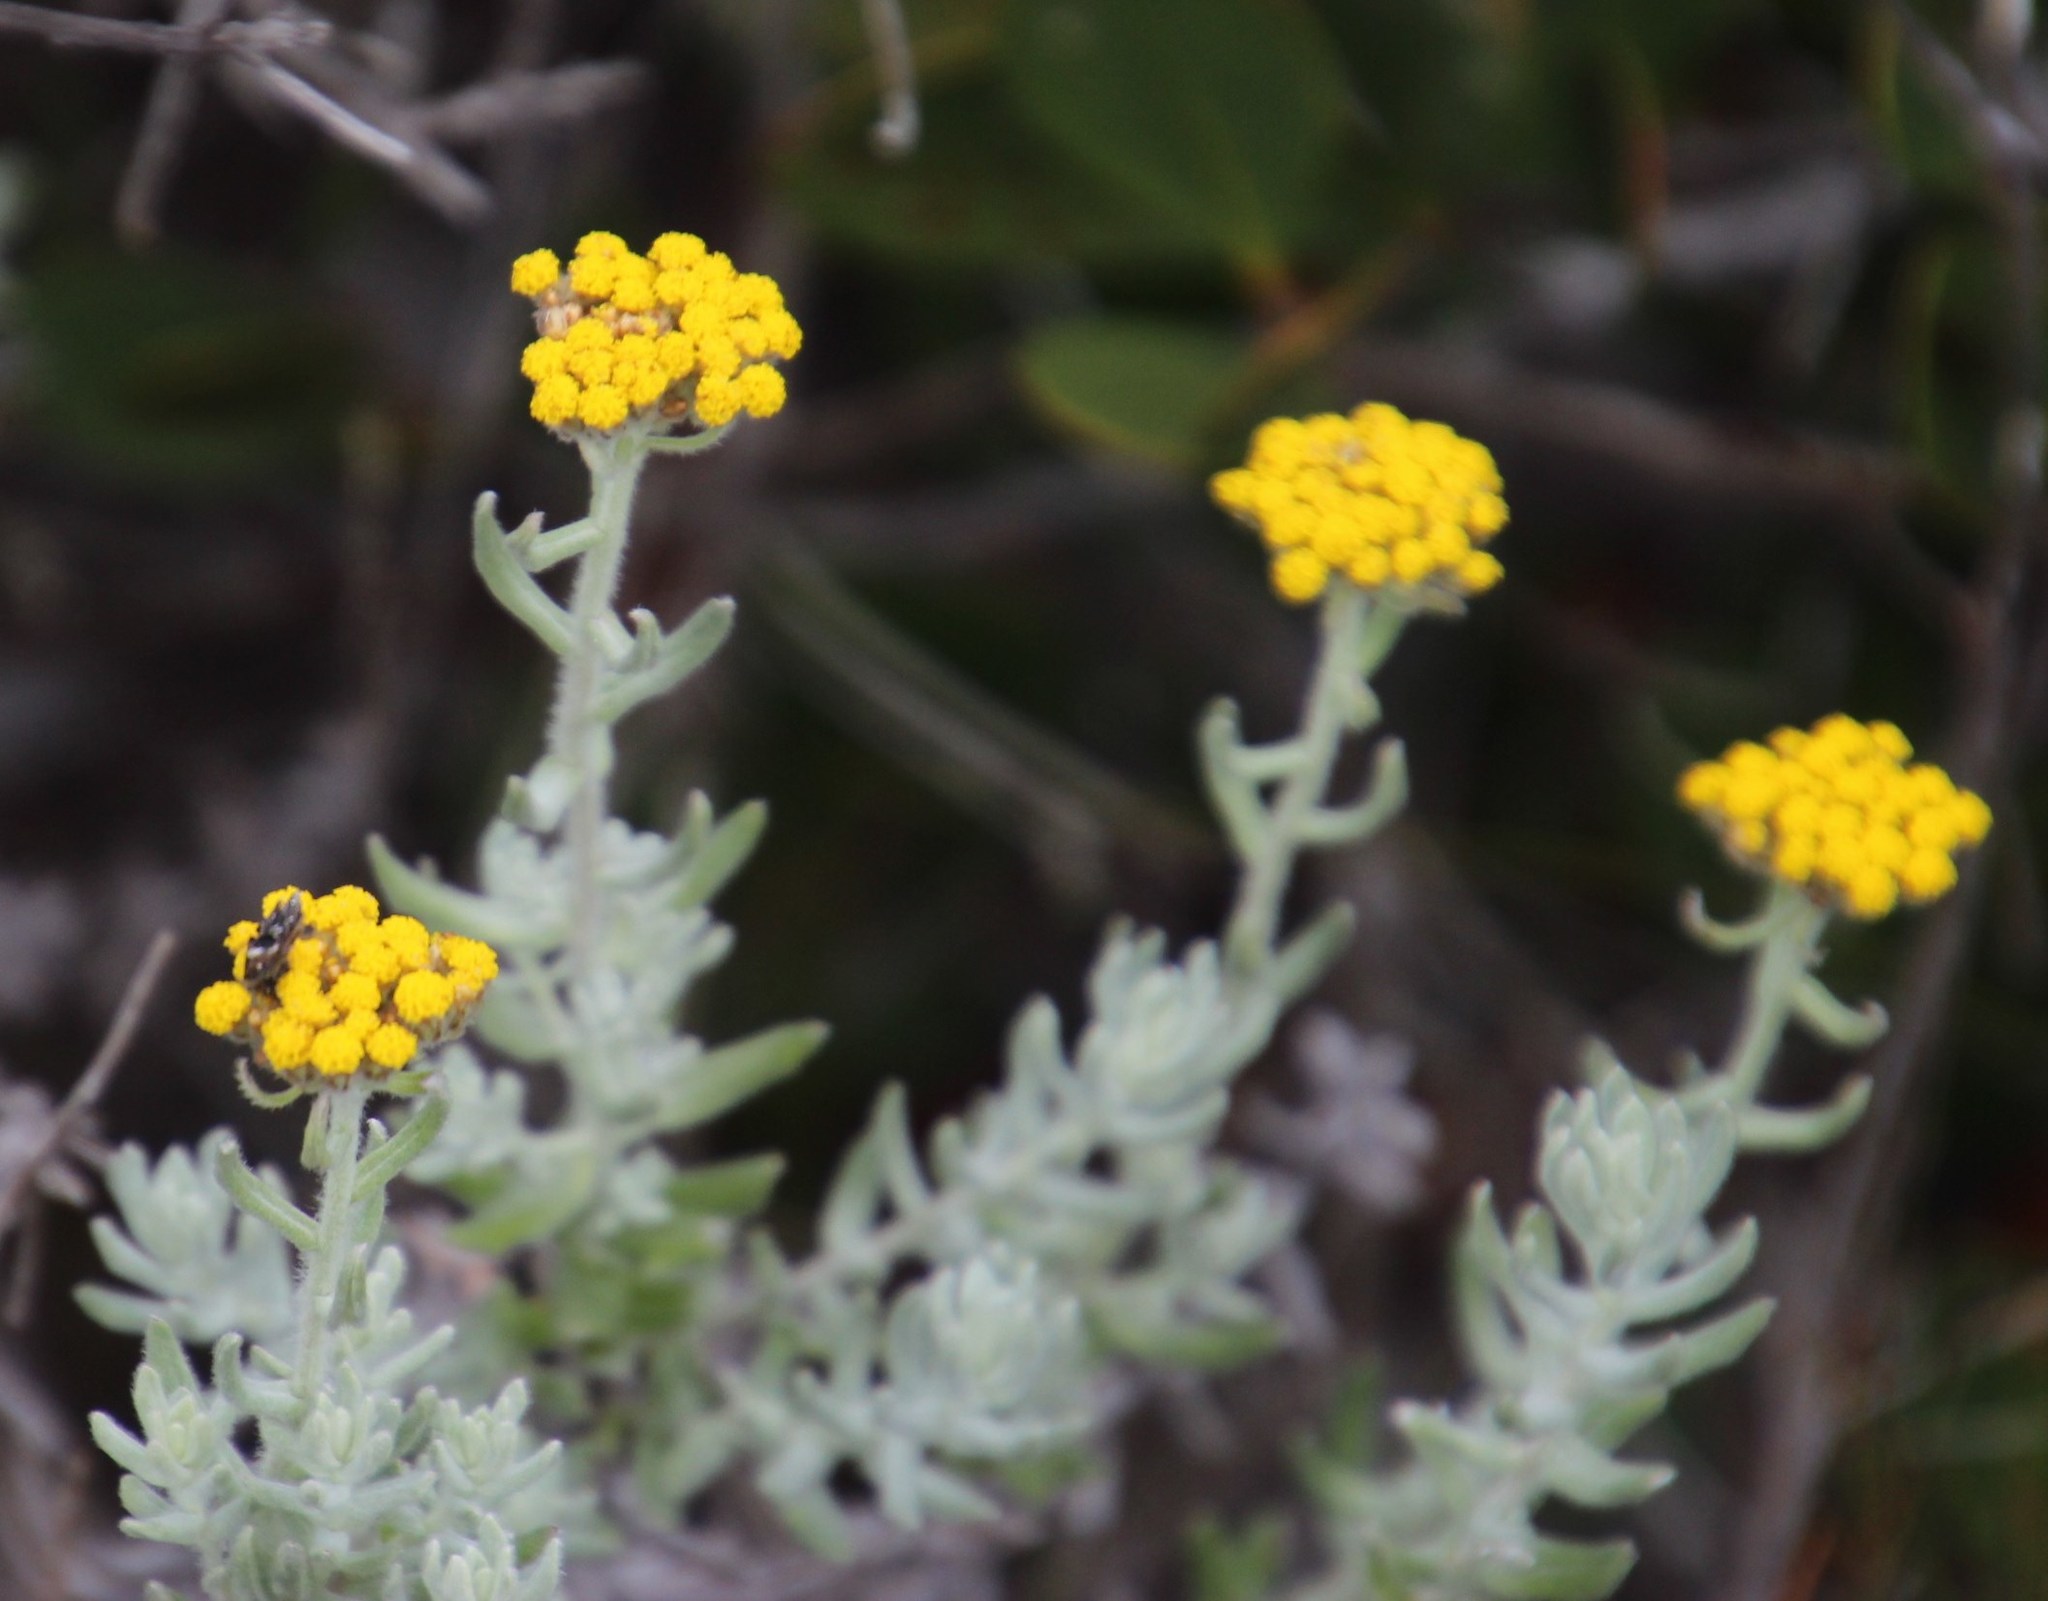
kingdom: Plantae
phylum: Tracheophyta
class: Magnoliopsida
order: Asterales
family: Asteraceae
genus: Helichrysum
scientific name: Helichrysum dasyanthum
